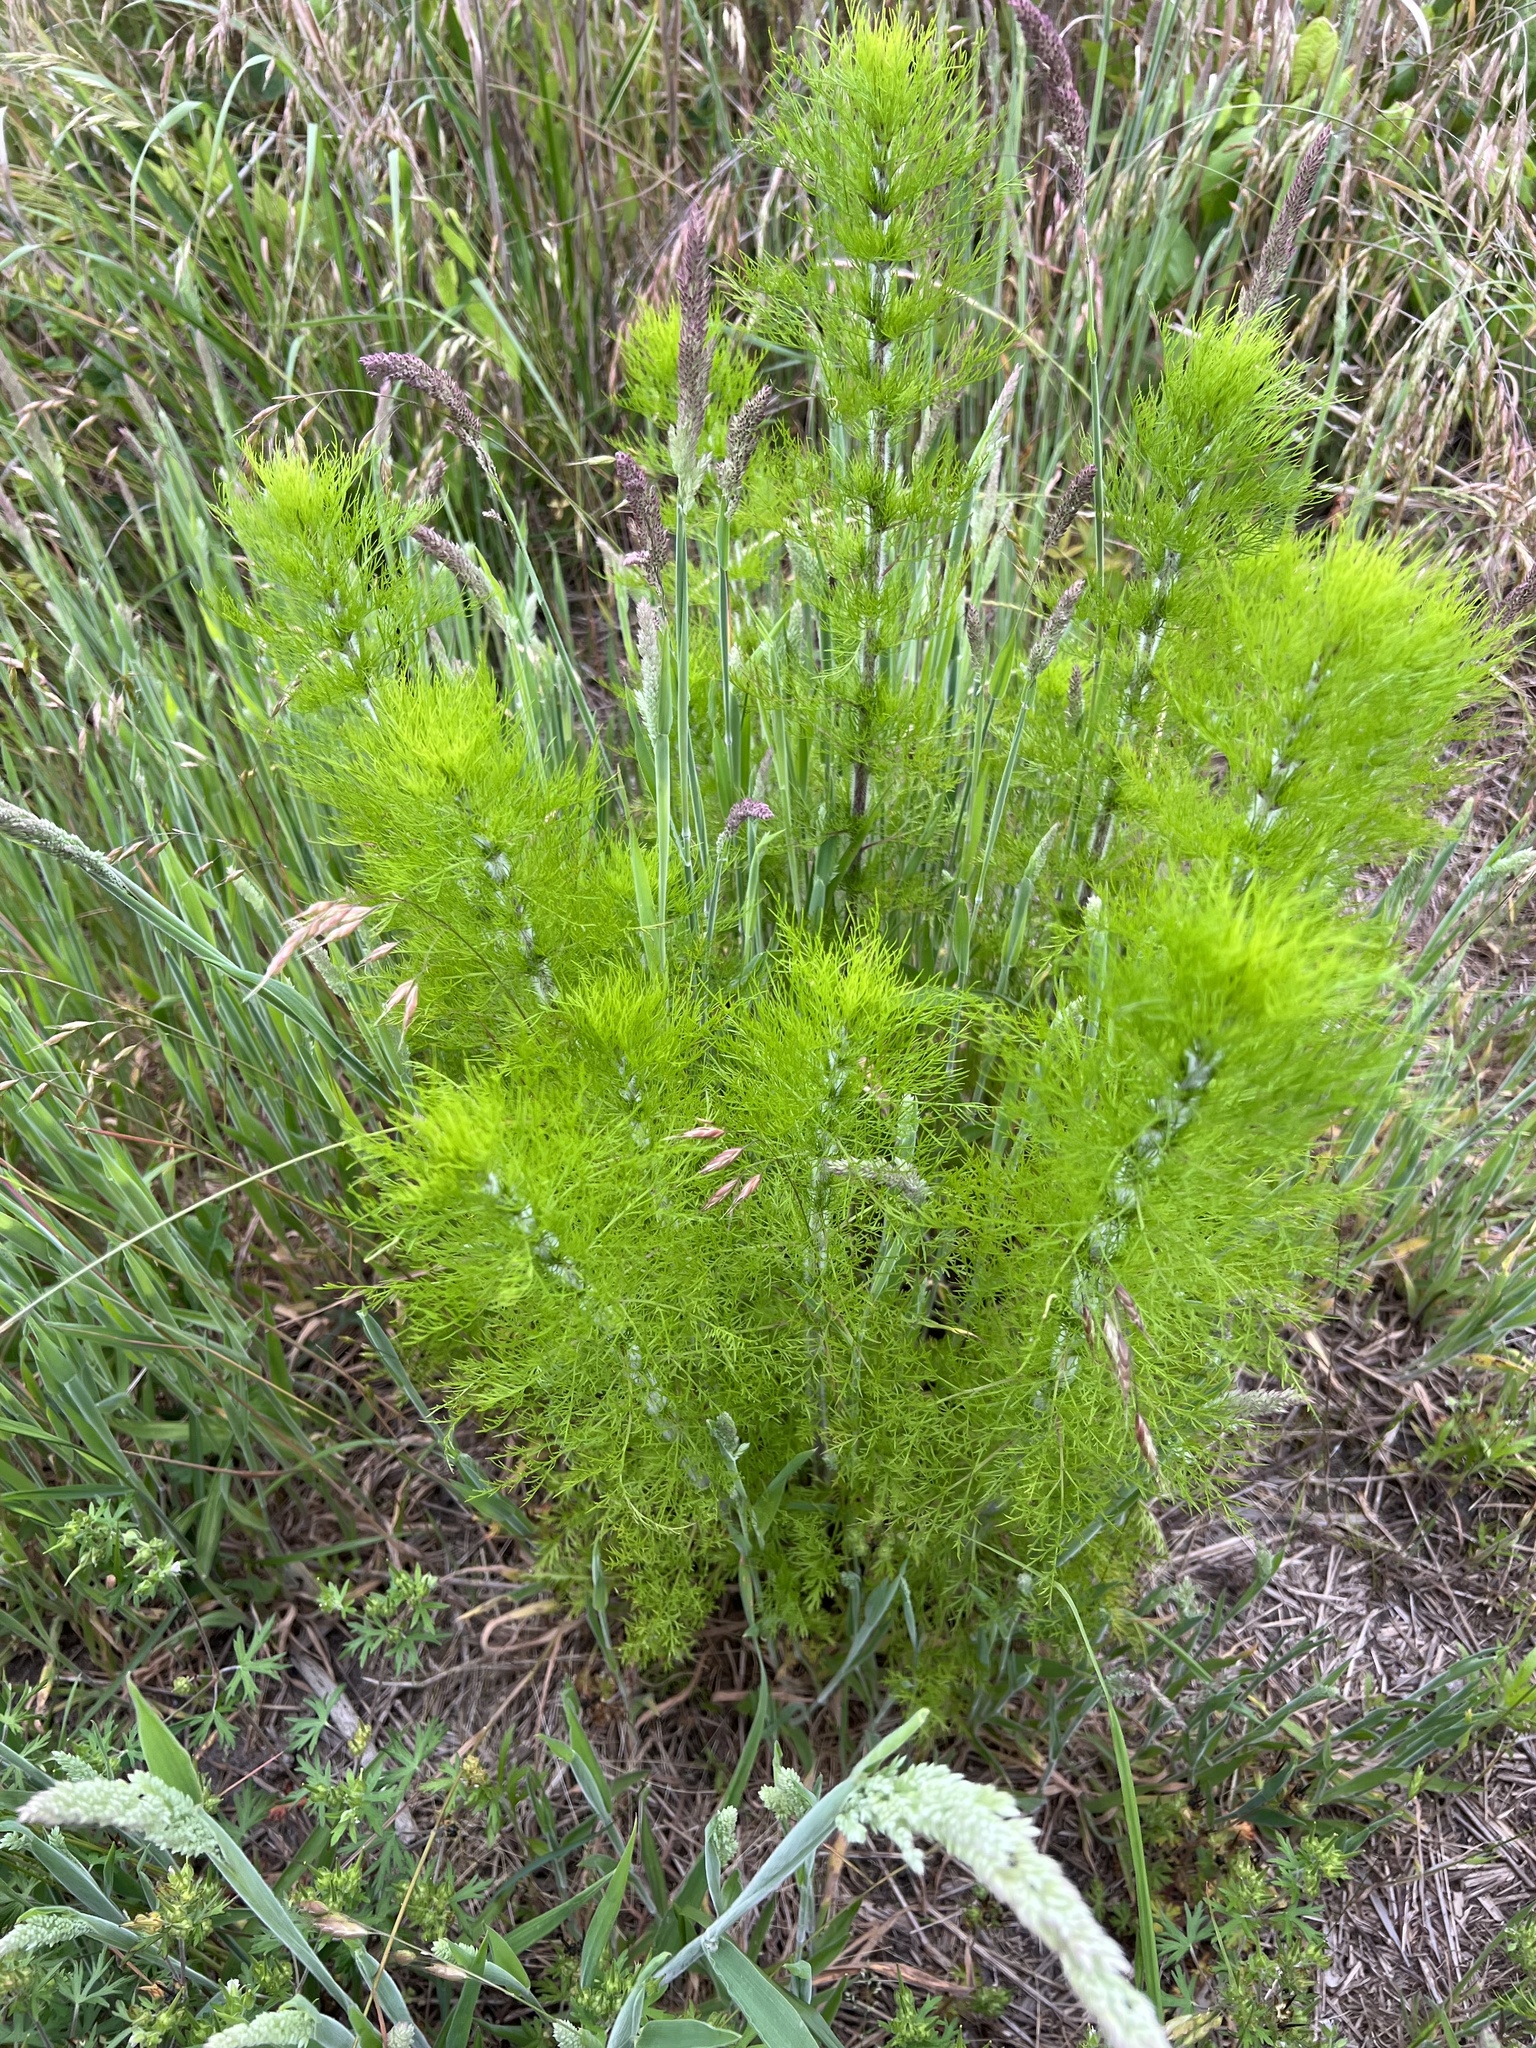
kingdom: Plantae
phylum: Tracheophyta
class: Magnoliopsida
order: Asterales
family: Asteraceae
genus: Eupatorium
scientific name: Eupatorium capillifolium
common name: Dog-fennel
